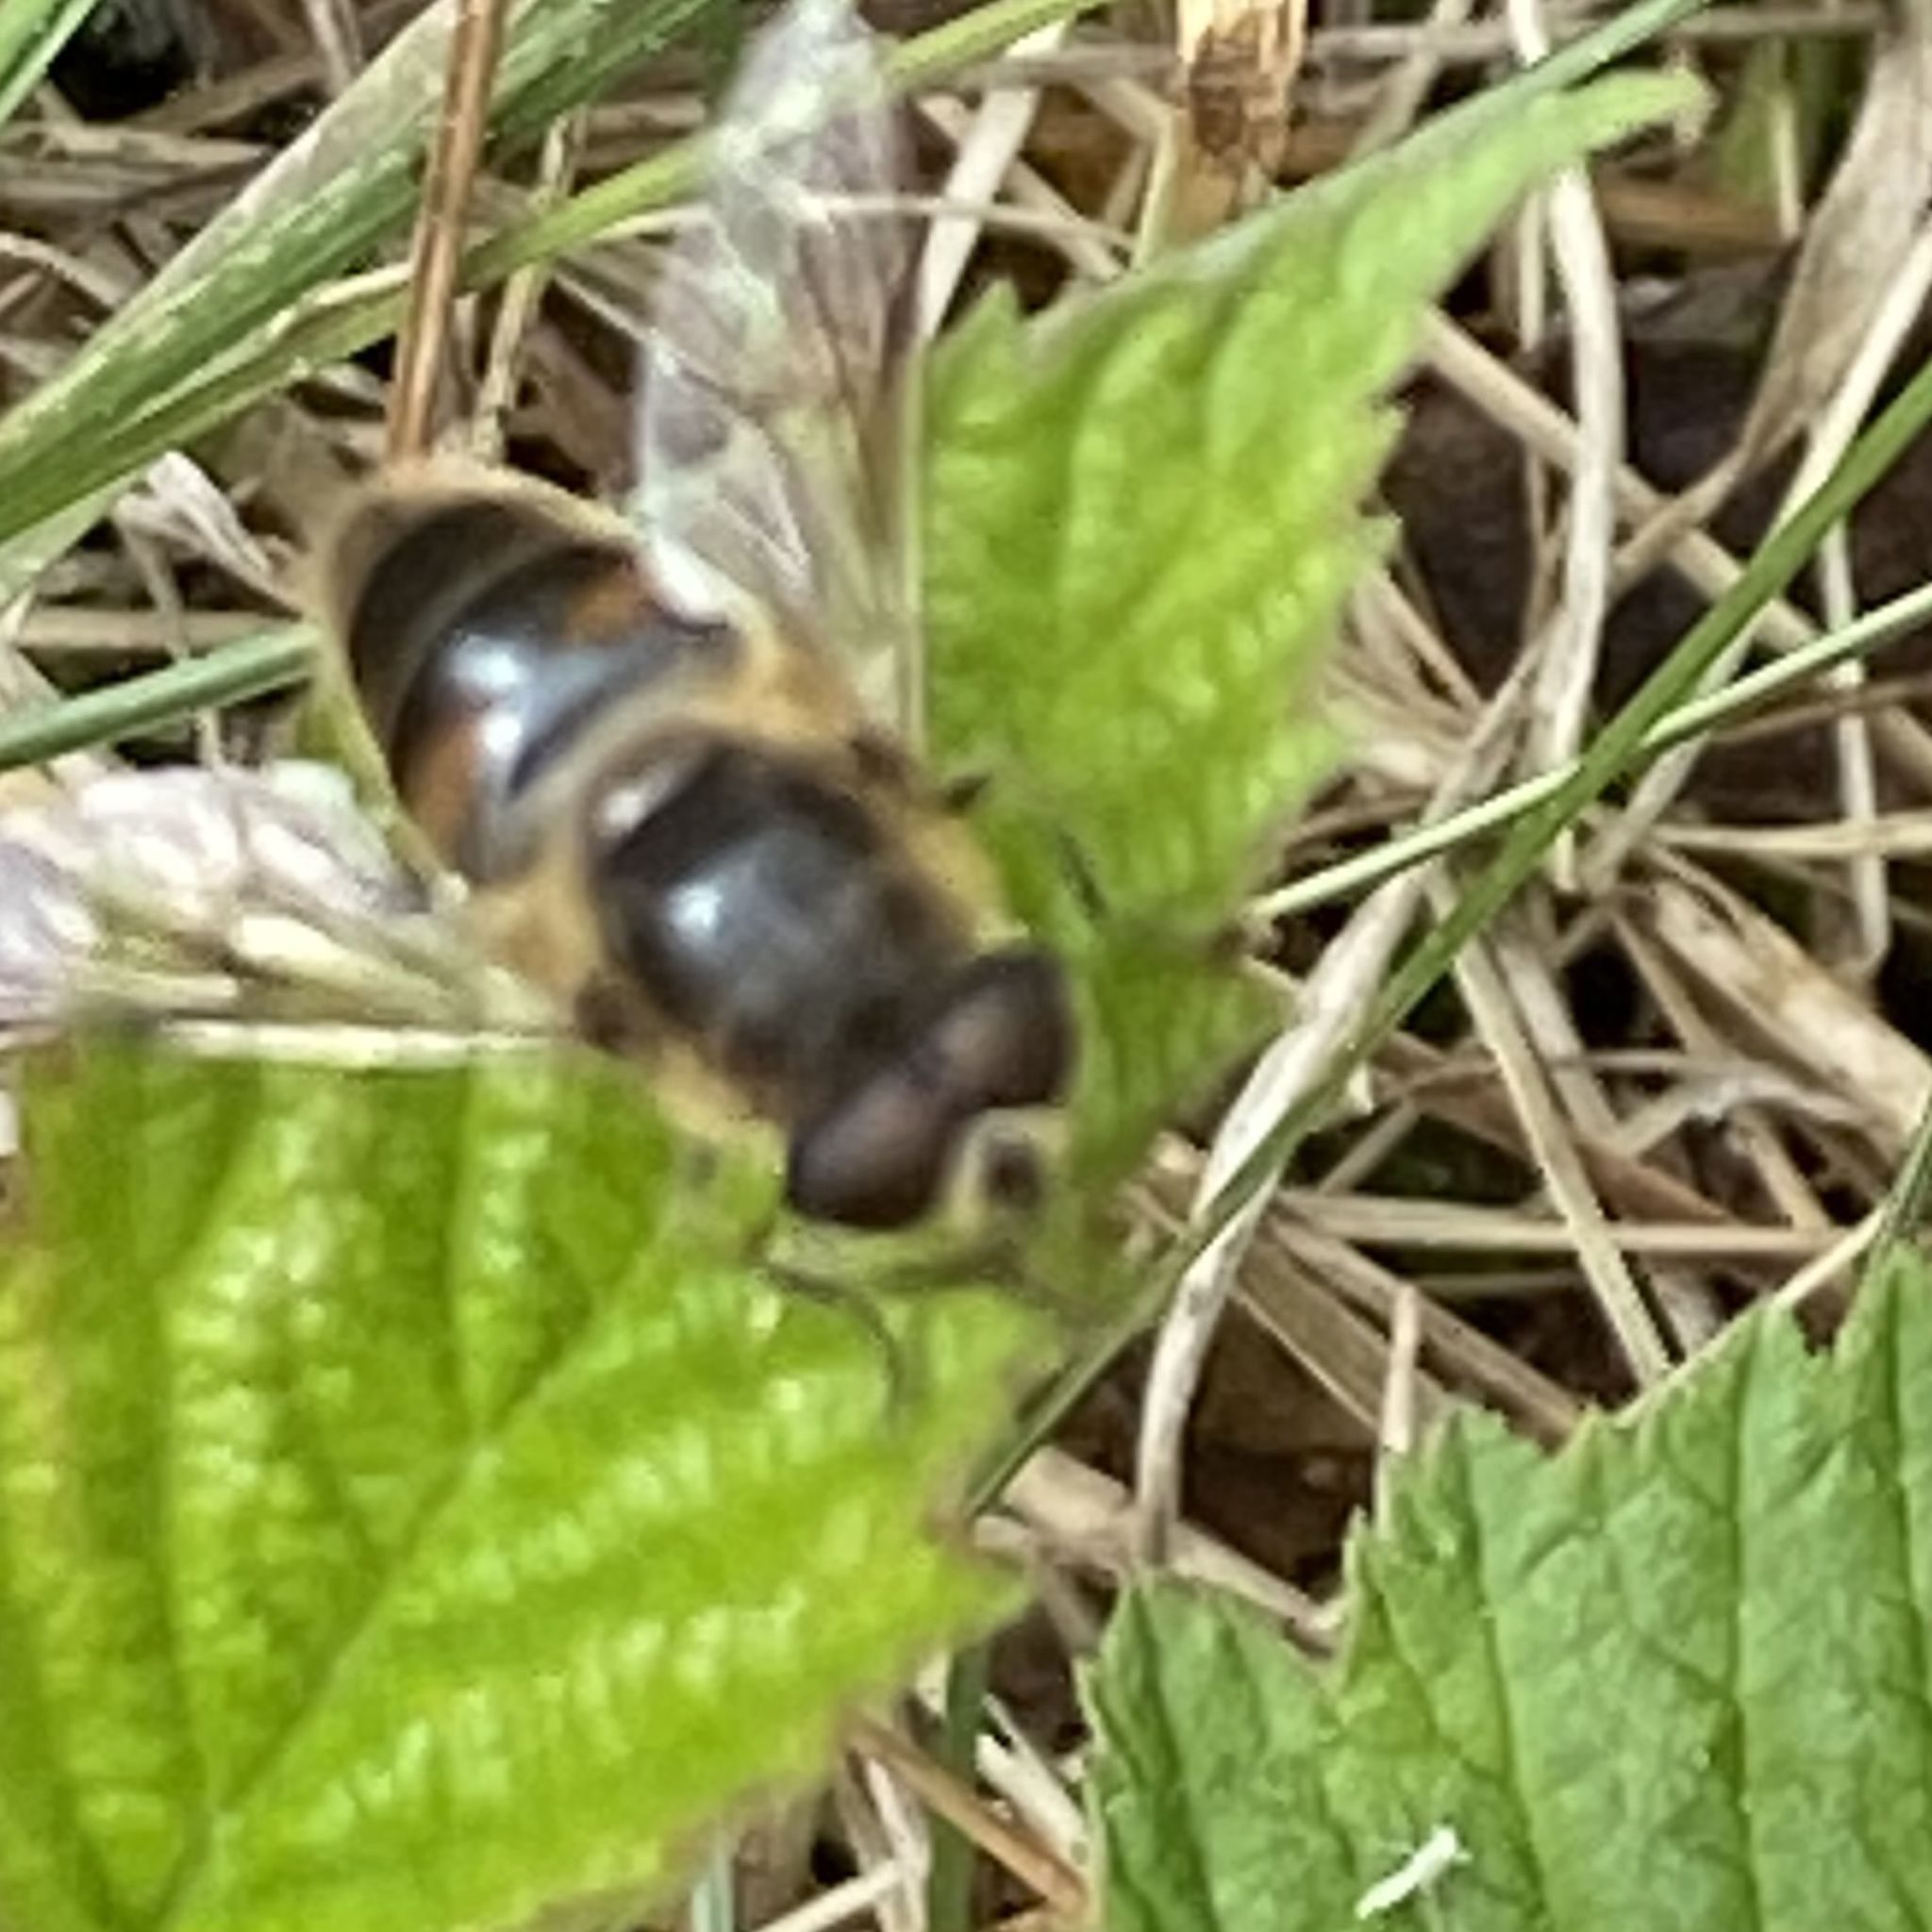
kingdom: Animalia
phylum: Arthropoda
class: Insecta
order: Diptera
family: Syrphidae
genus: Eristalis
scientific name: Eristalis tenax
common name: Drone fly
